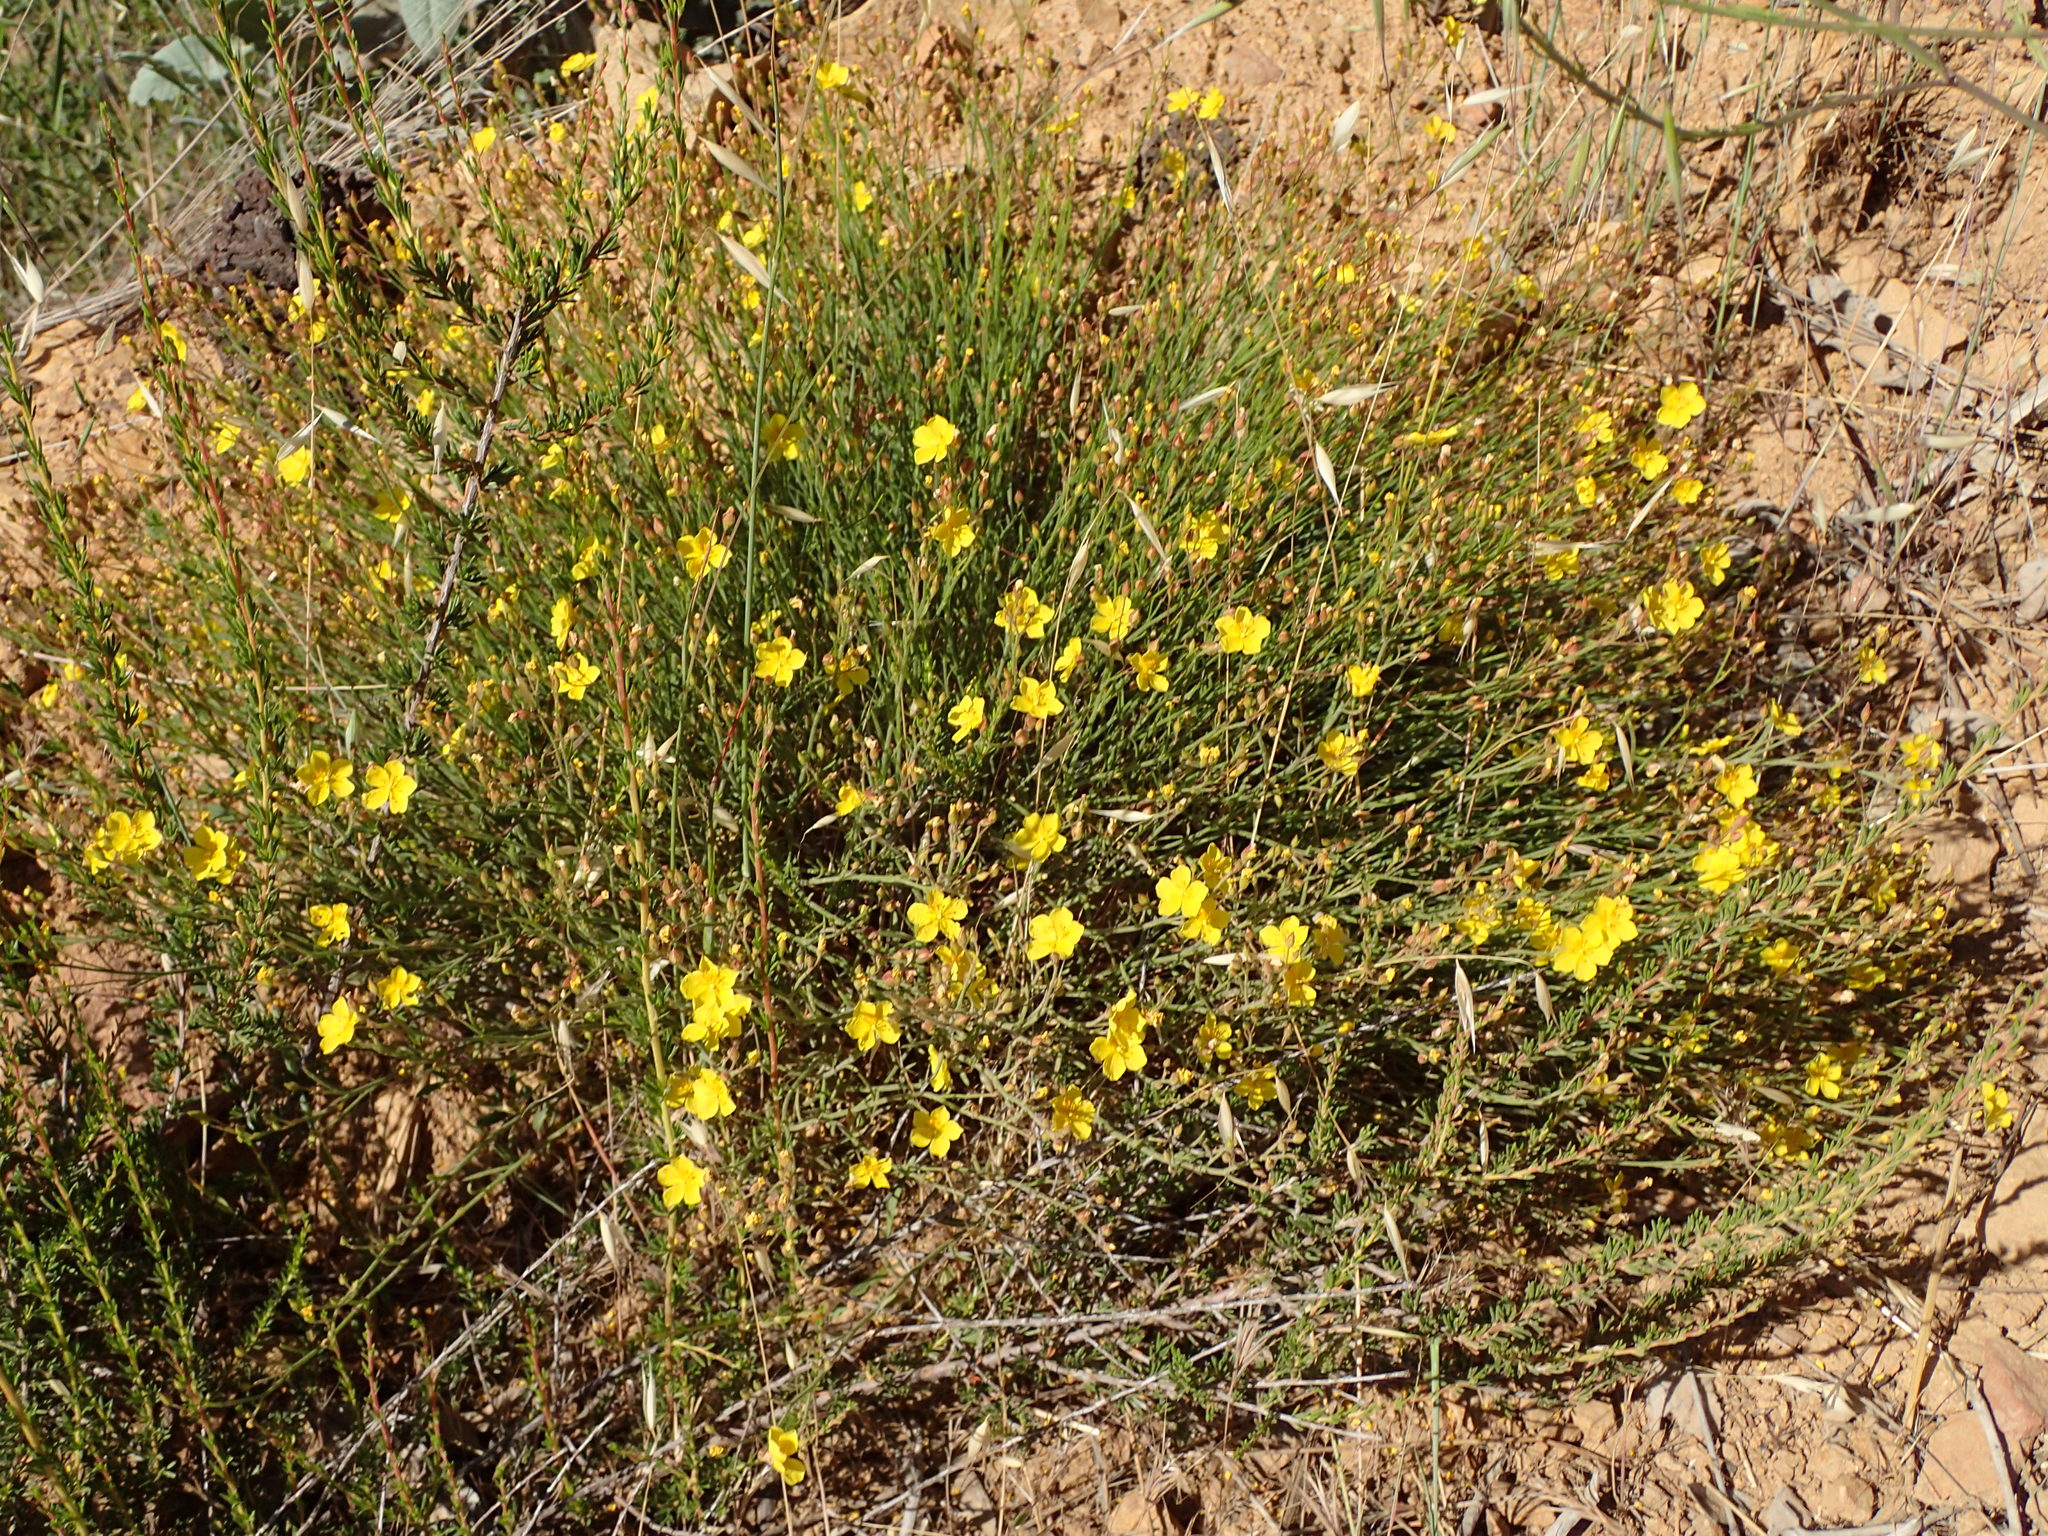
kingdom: Plantae
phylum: Tracheophyta
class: Magnoliopsida
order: Malvales
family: Cistaceae
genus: Crocanthemum
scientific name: Crocanthemum scoparium
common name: Broom-rose
